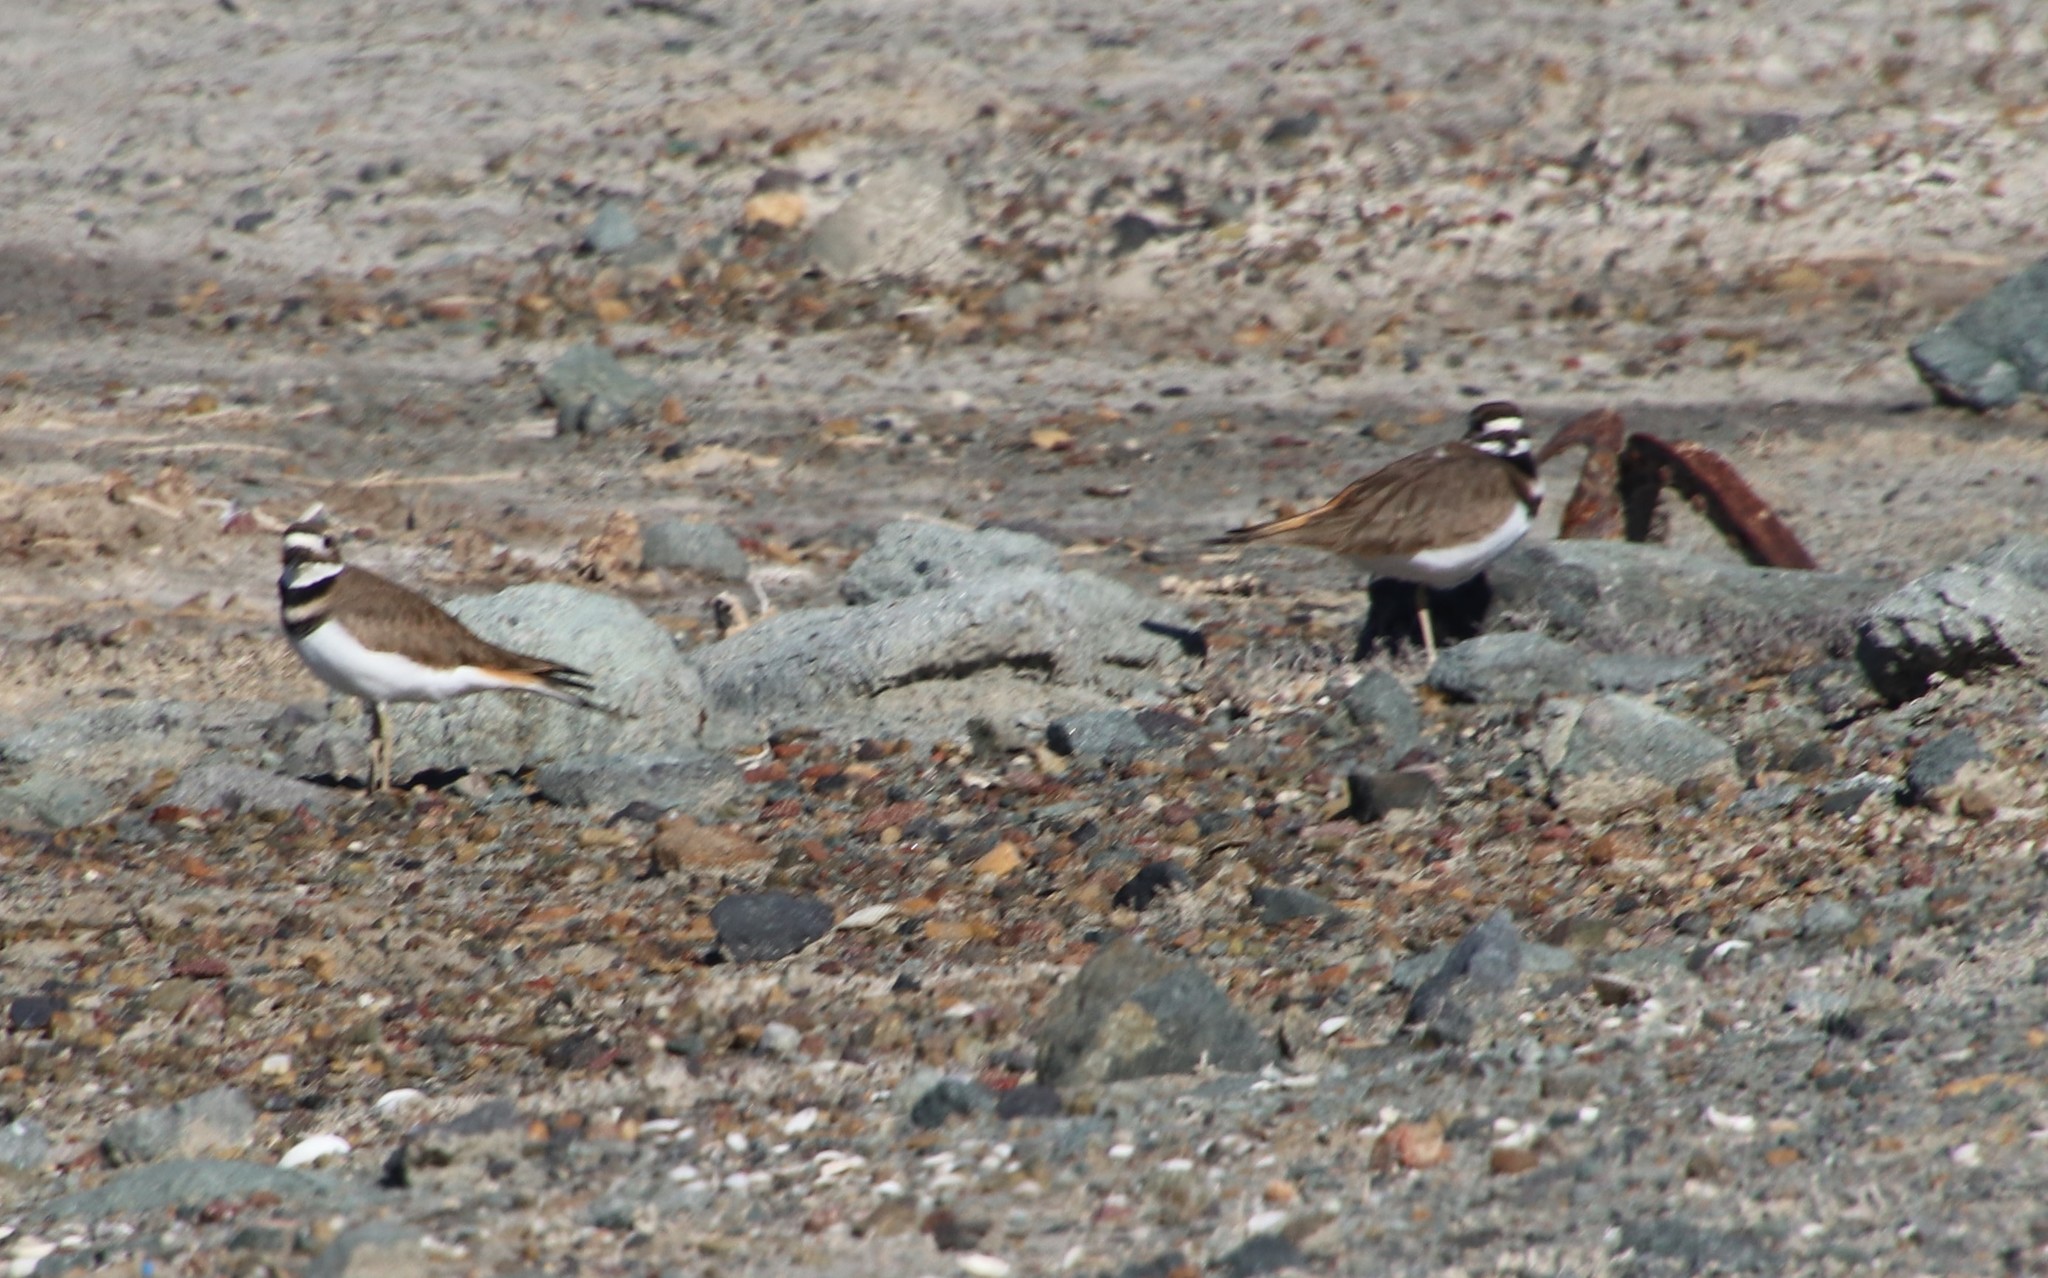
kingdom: Animalia
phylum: Chordata
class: Aves
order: Charadriiformes
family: Charadriidae
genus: Charadrius
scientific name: Charadrius vociferus
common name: Killdeer
